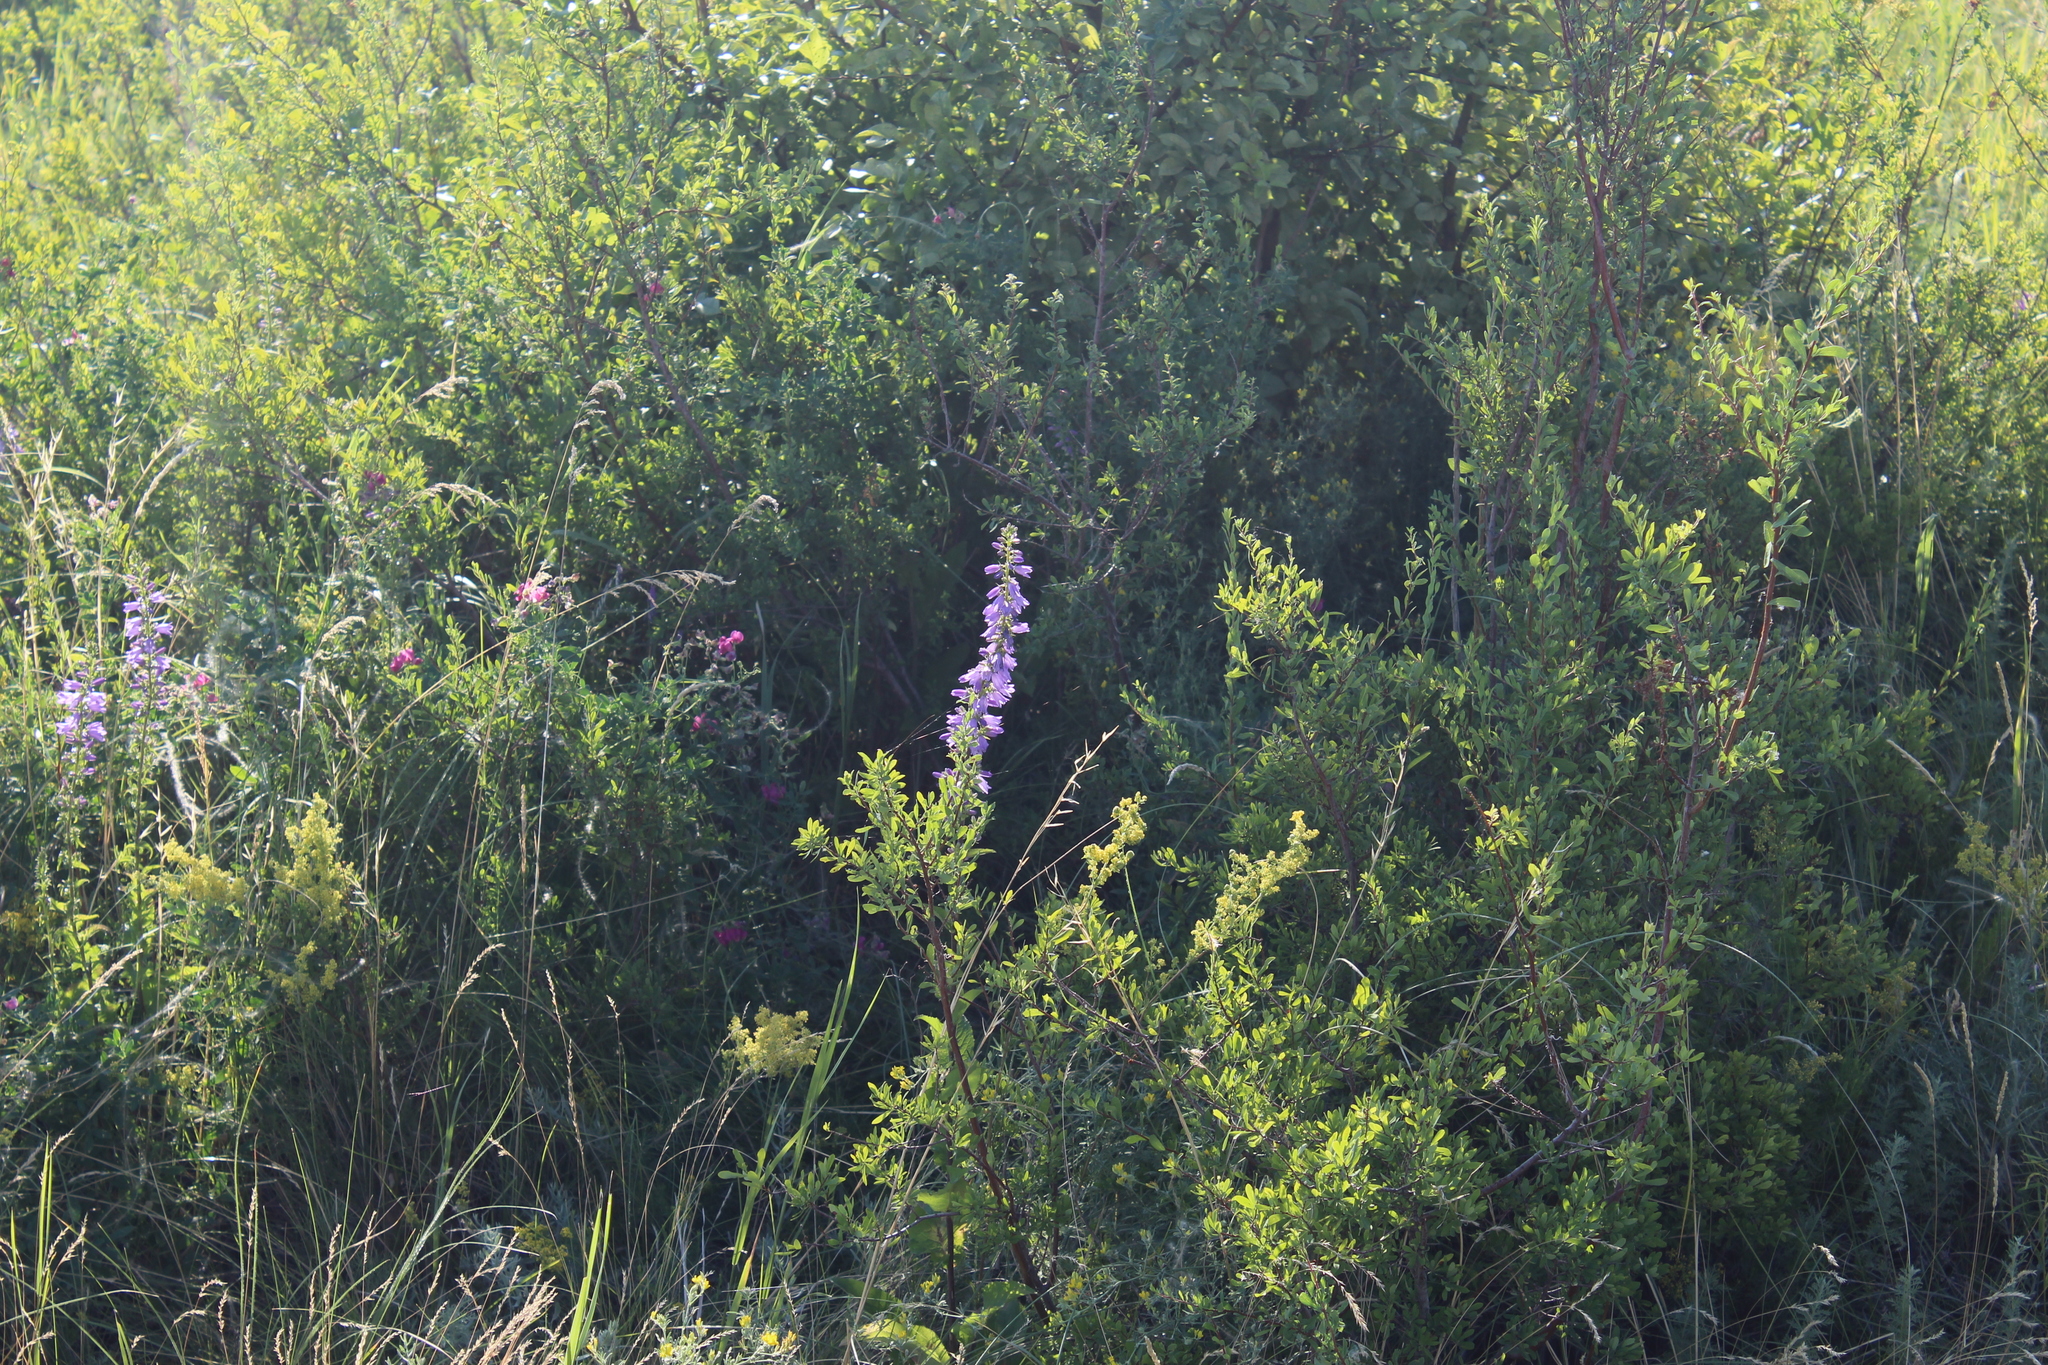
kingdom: Plantae
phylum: Tracheophyta
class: Magnoliopsida
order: Asterales
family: Campanulaceae
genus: Campanula
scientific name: Campanula bononiensis
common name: Pale bellflower
